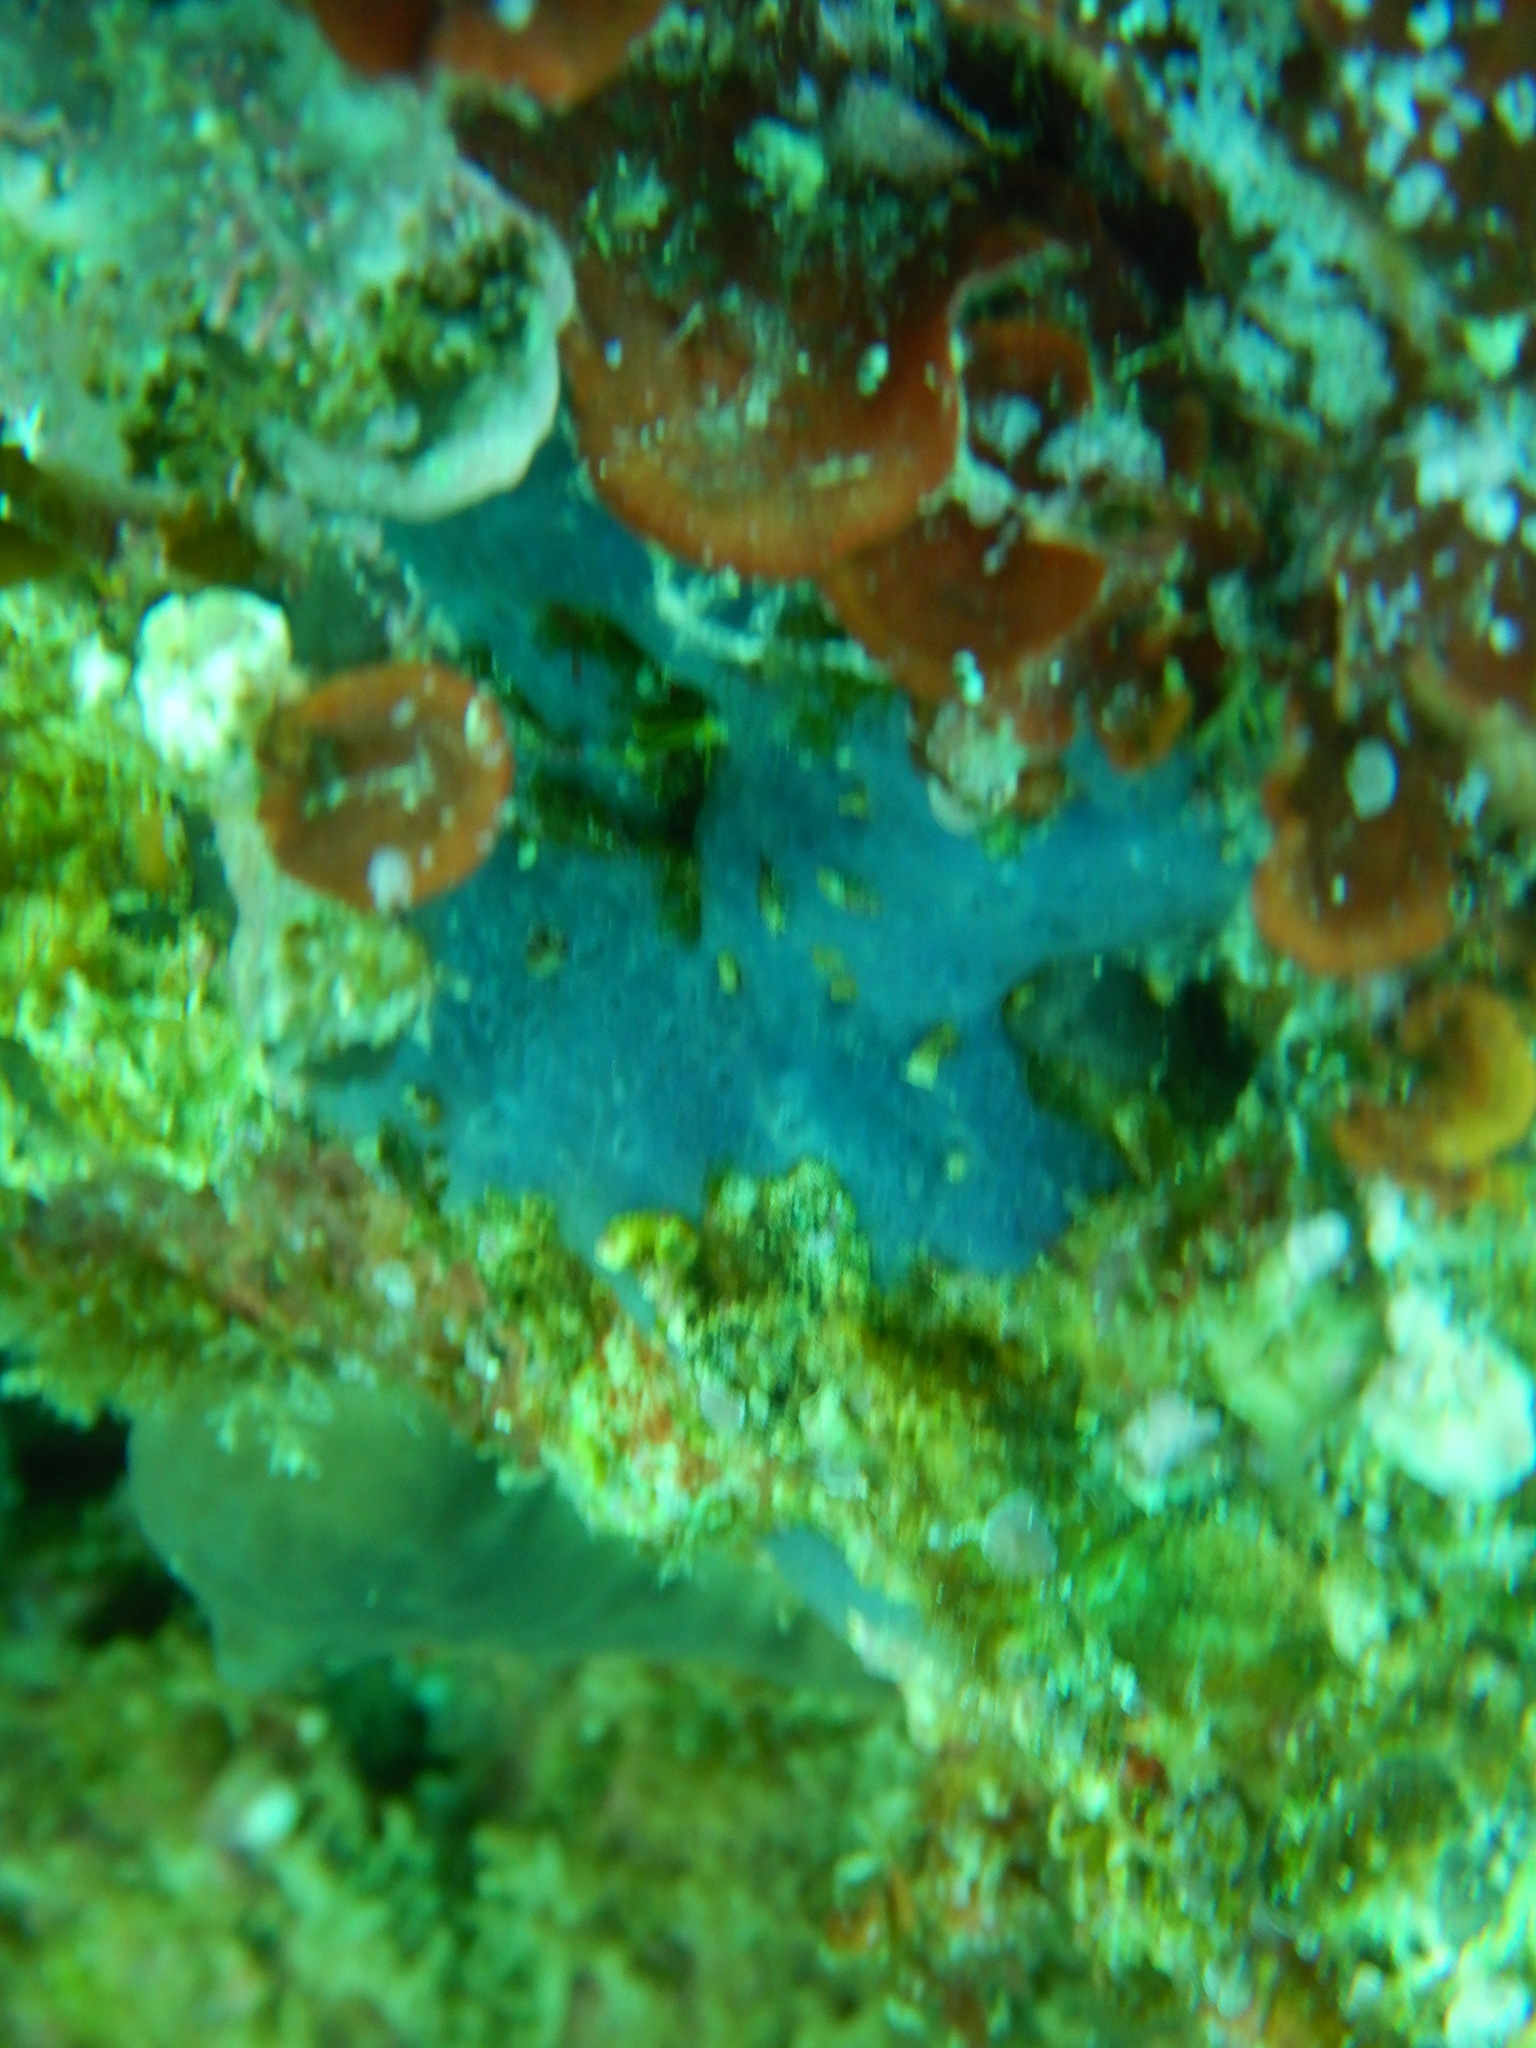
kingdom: Animalia
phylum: Porifera
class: Demospongiae
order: Poecilosclerida
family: Hymedesmiidae
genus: Phorbas
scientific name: Phorbas tenacior
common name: Bluish encrusting sponge
